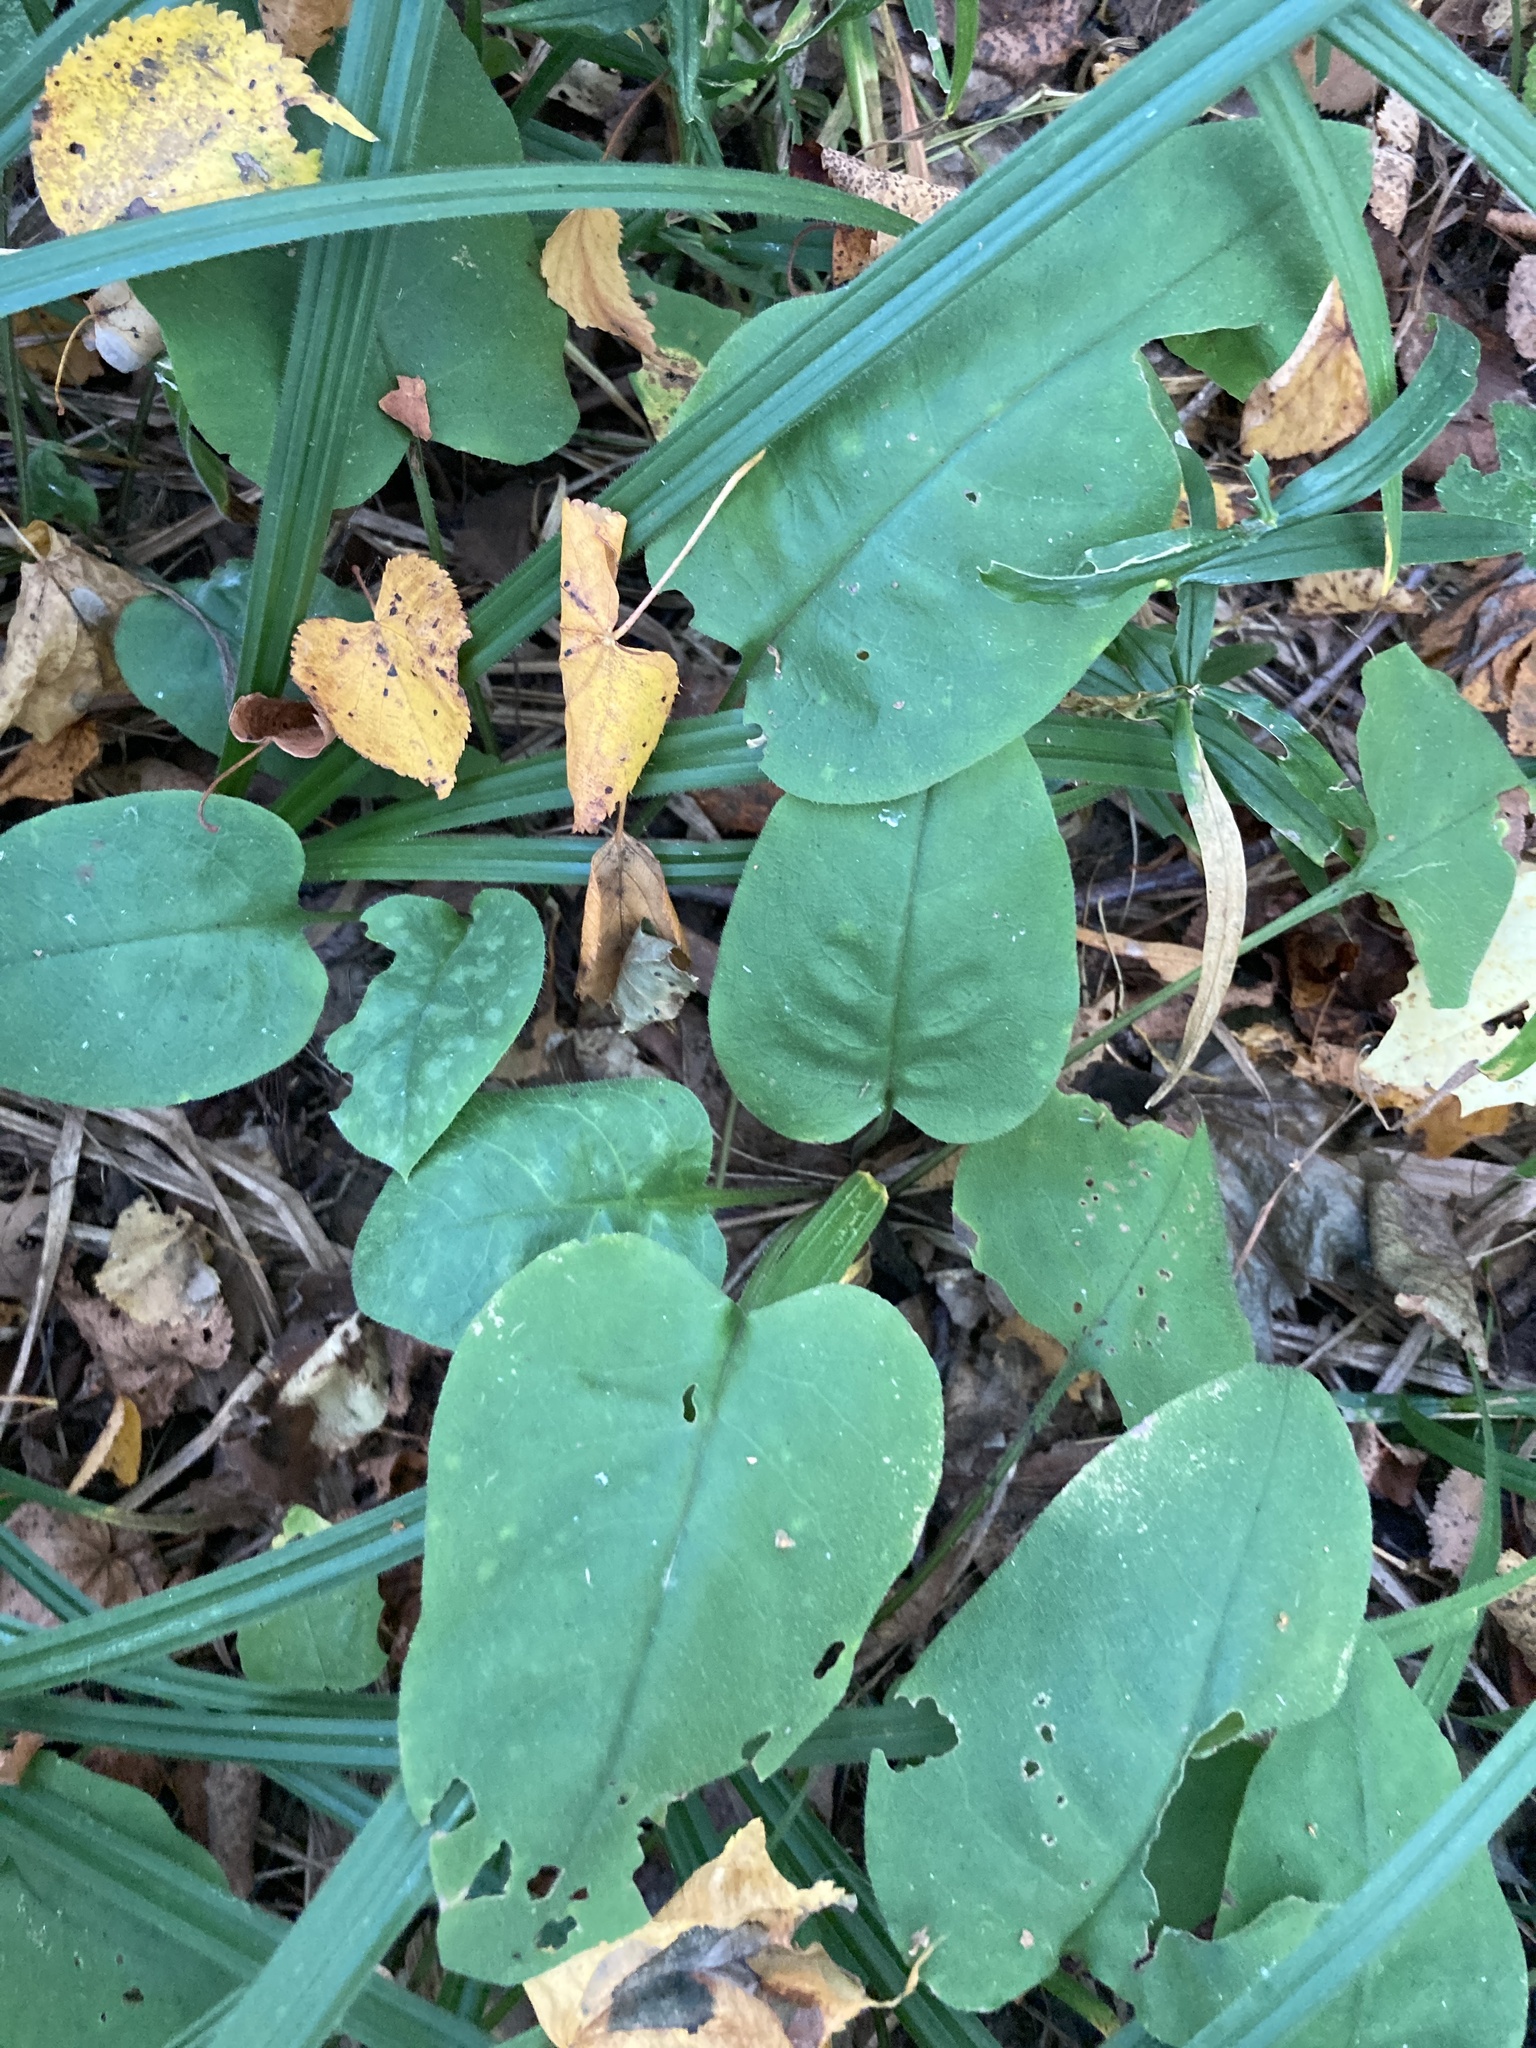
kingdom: Plantae
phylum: Tracheophyta
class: Magnoliopsida
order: Boraginales
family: Boraginaceae
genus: Pulmonaria
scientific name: Pulmonaria obscura
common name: Suffolk lungwort
